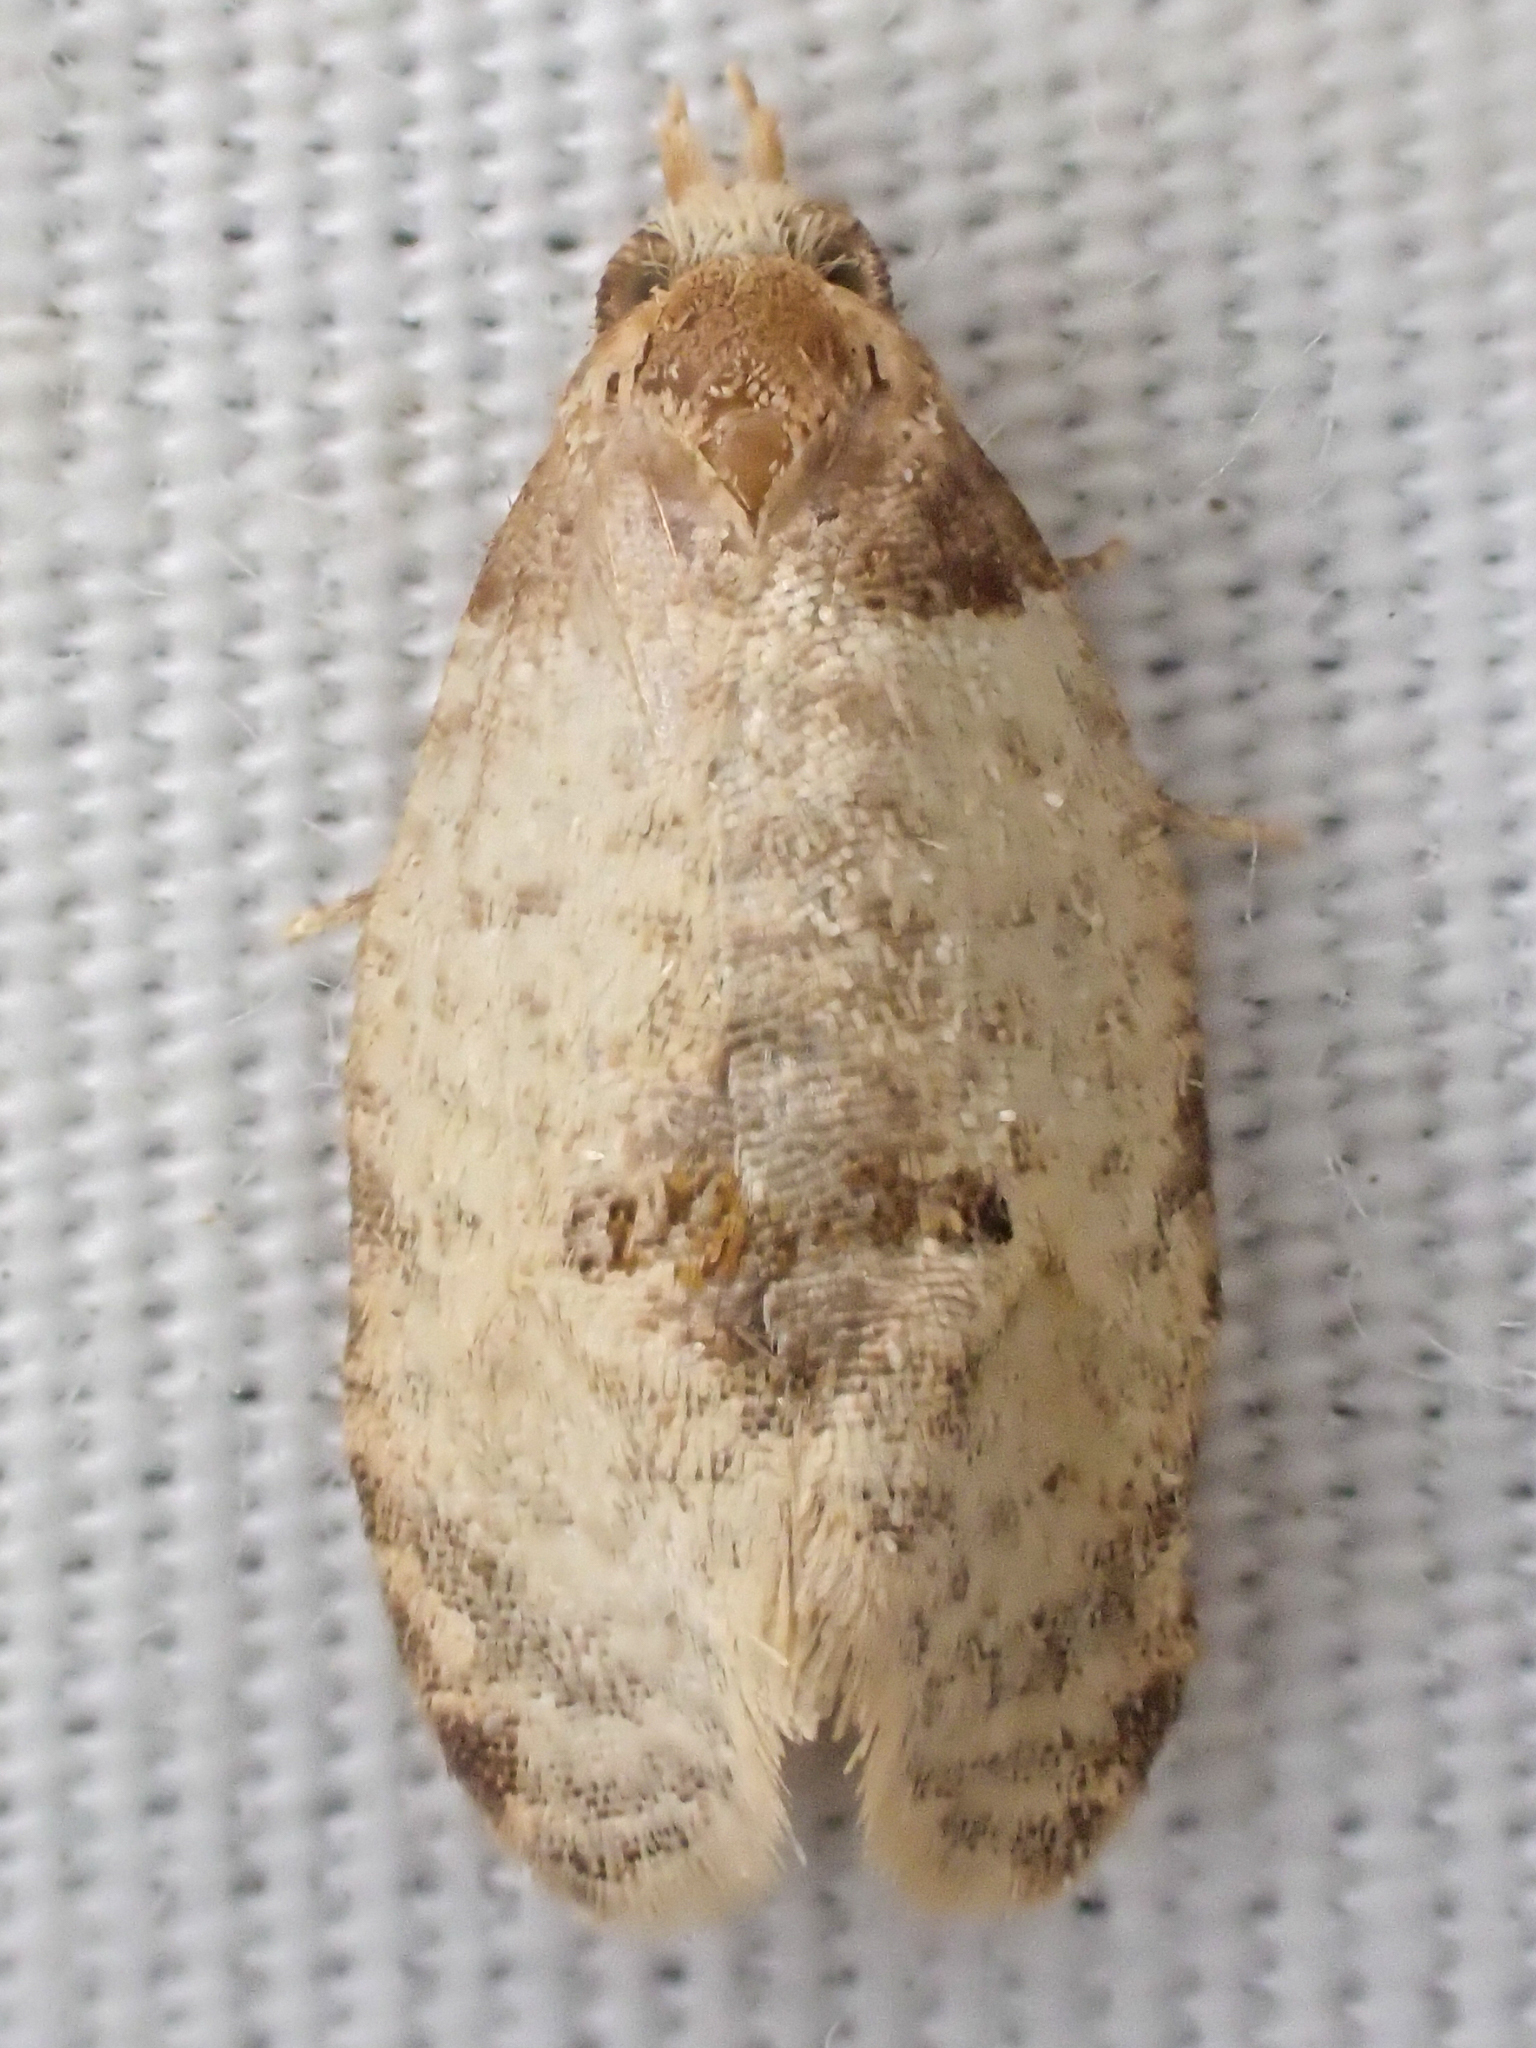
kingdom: Animalia
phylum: Arthropoda
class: Insecta
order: Lepidoptera
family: Tortricidae
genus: Henricus
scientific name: Henricus umbrabasana
